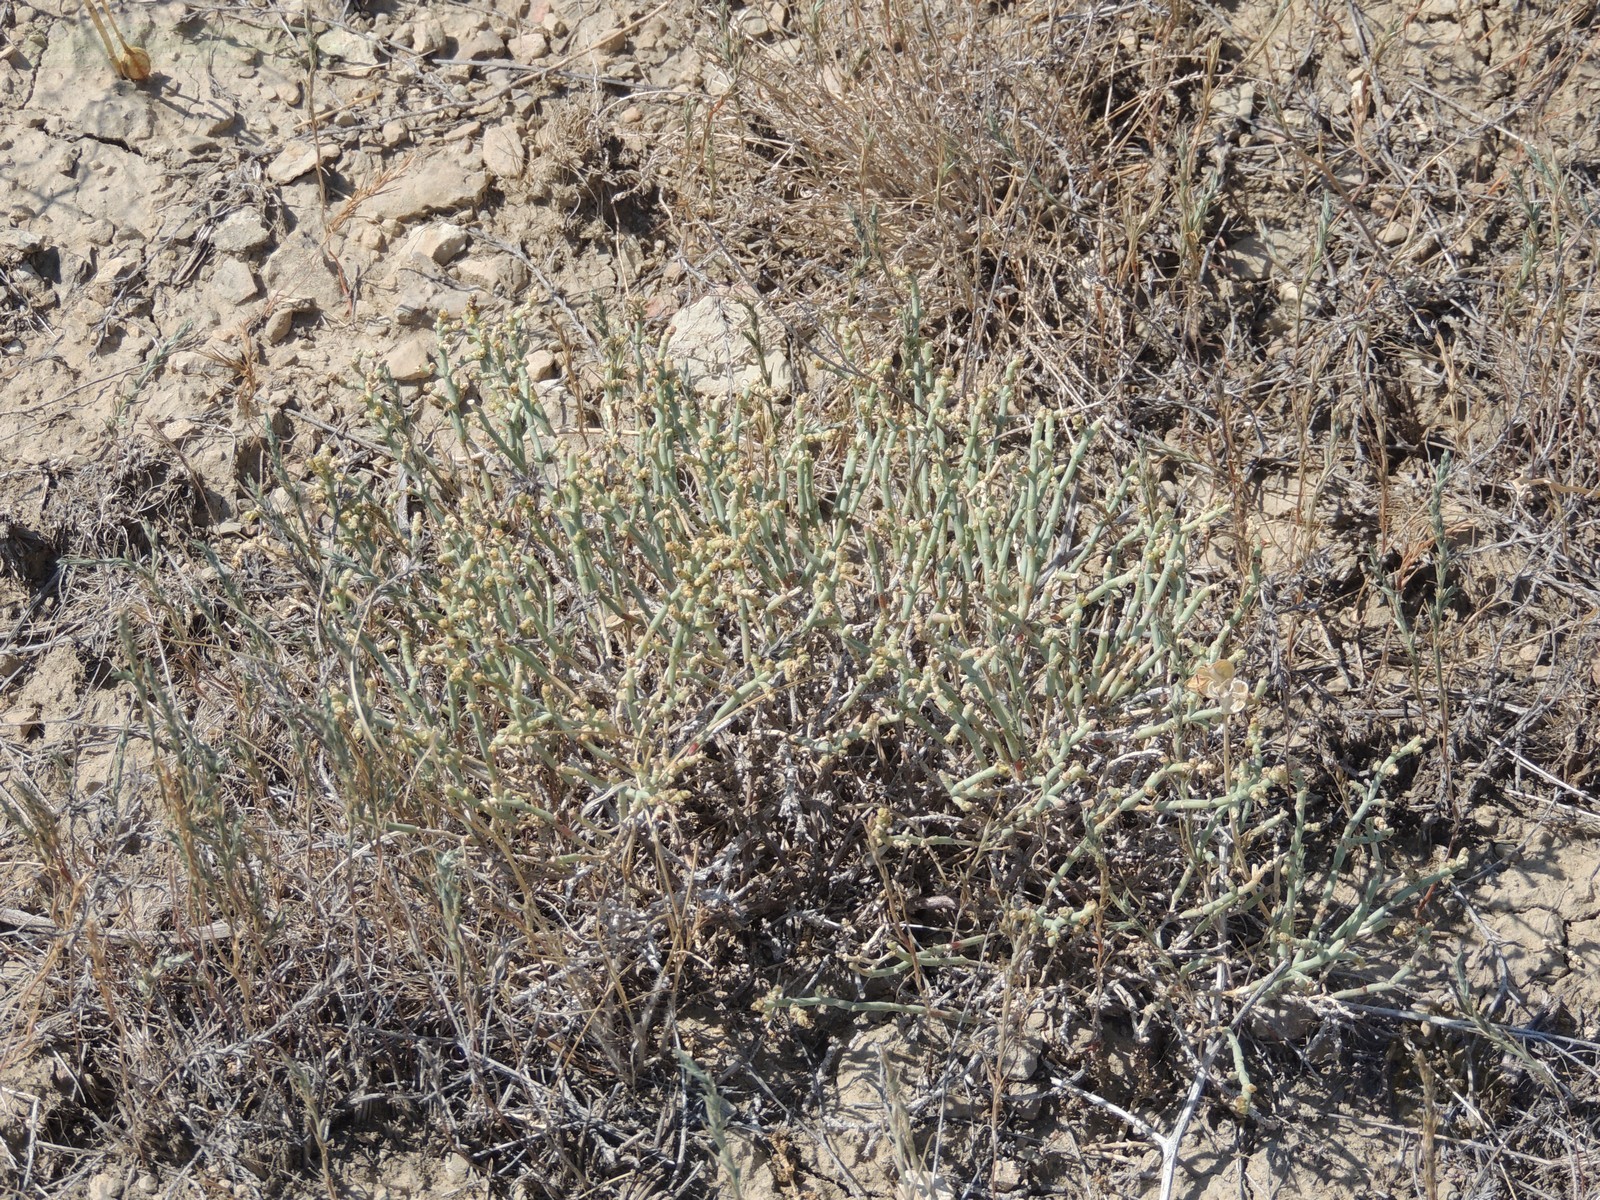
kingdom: Plantae
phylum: Tracheophyta
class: Magnoliopsida
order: Caryophyllales
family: Amaranthaceae
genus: Anabasis
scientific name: Anabasis salsa
